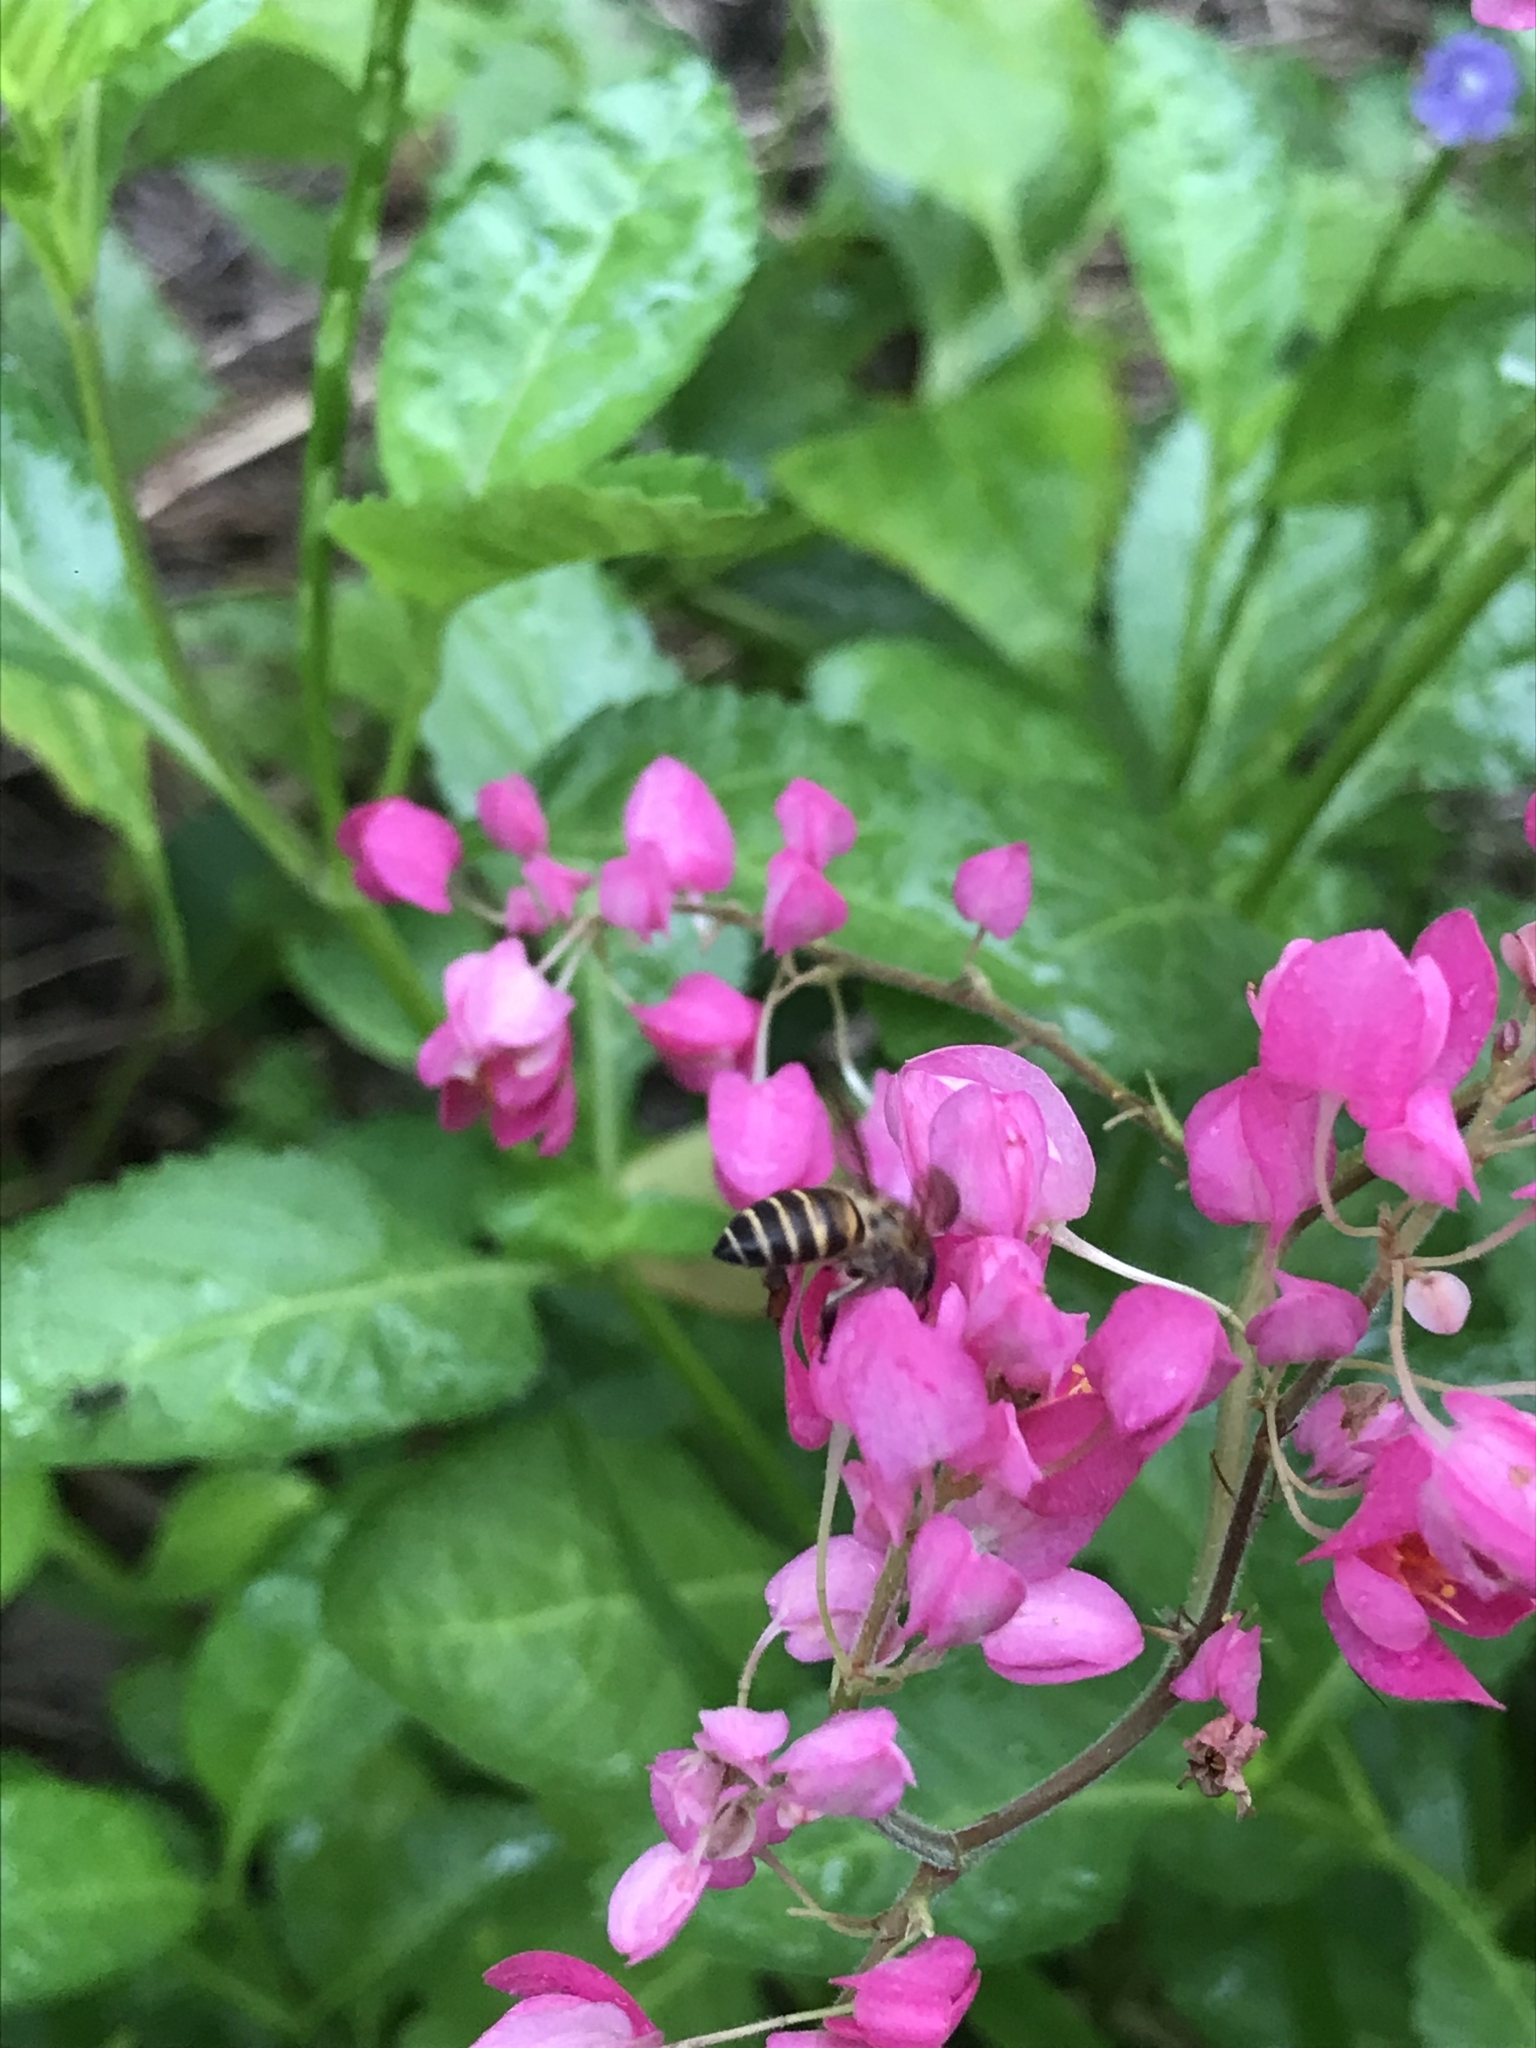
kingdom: Animalia
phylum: Arthropoda
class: Insecta
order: Hymenoptera
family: Apidae
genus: Apis
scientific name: Apis cerana
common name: Honey bee
